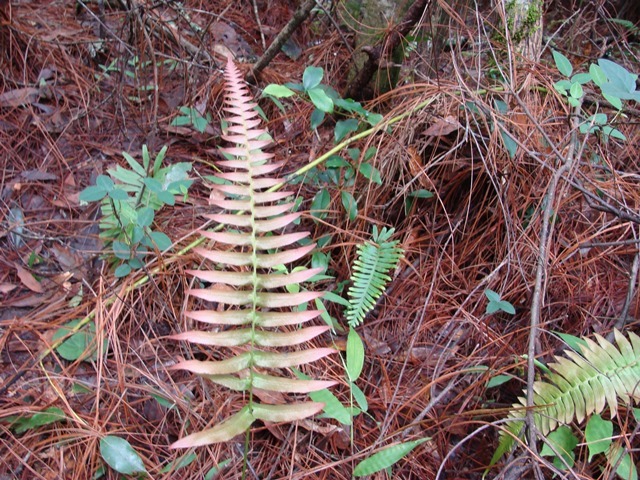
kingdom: Plantae
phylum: Tracheophyta
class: Polypodiopsida
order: Polypodiales
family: Blechnaceae
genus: Blechnum
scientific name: Blechnum occidentale
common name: Hammock fern
